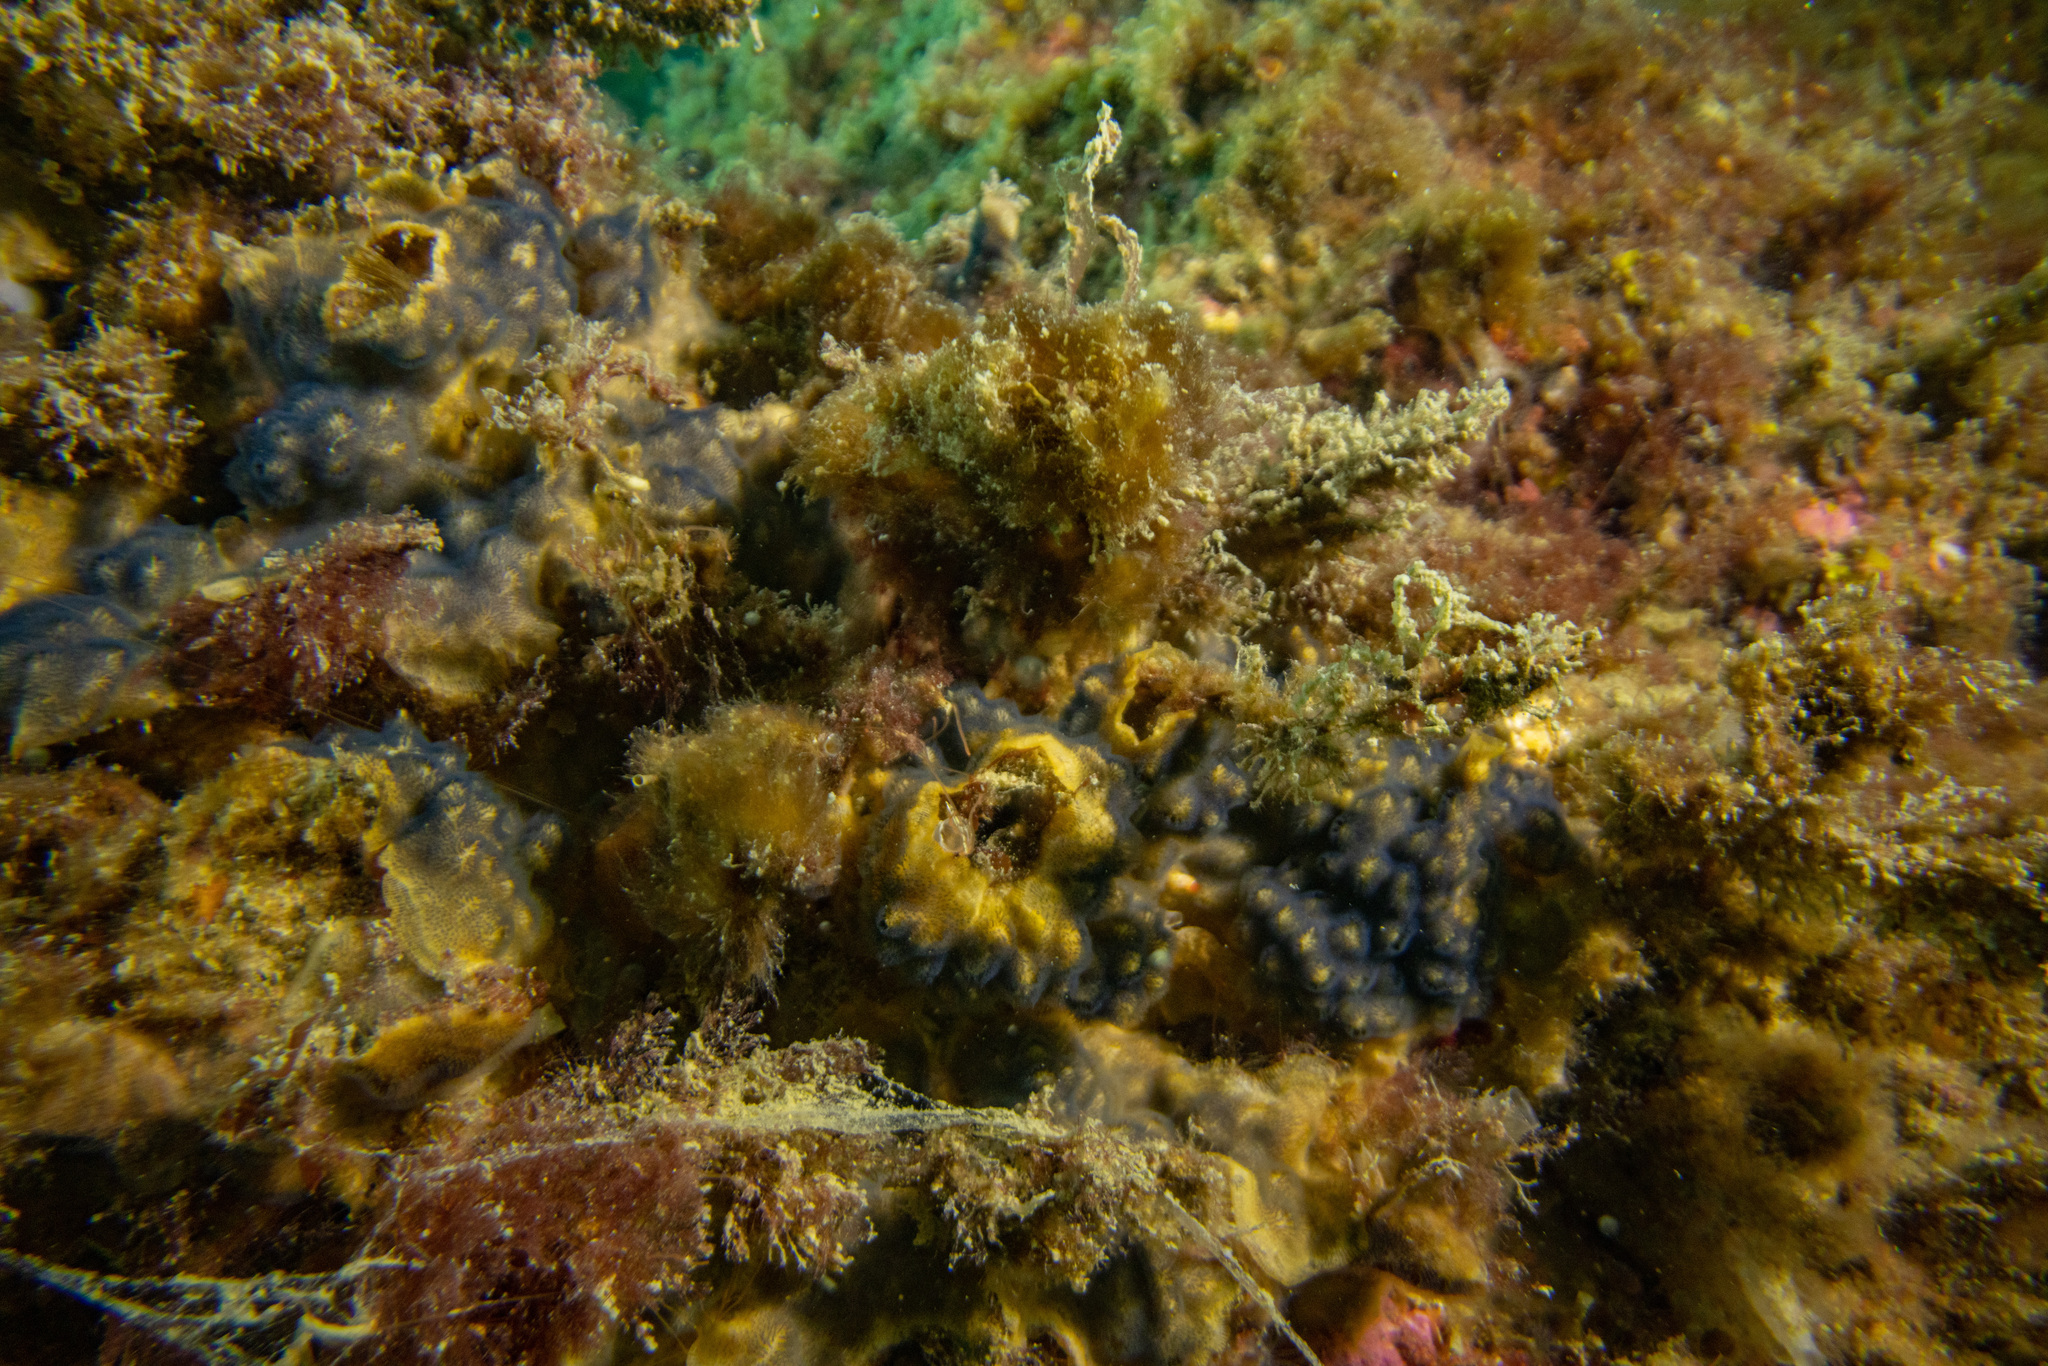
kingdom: Animalia
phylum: Bryozoa
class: Gymnolaemata
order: Cheilostomatida
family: Celleporidae
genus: Celleporaria
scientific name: Celleporaria nodulosa
